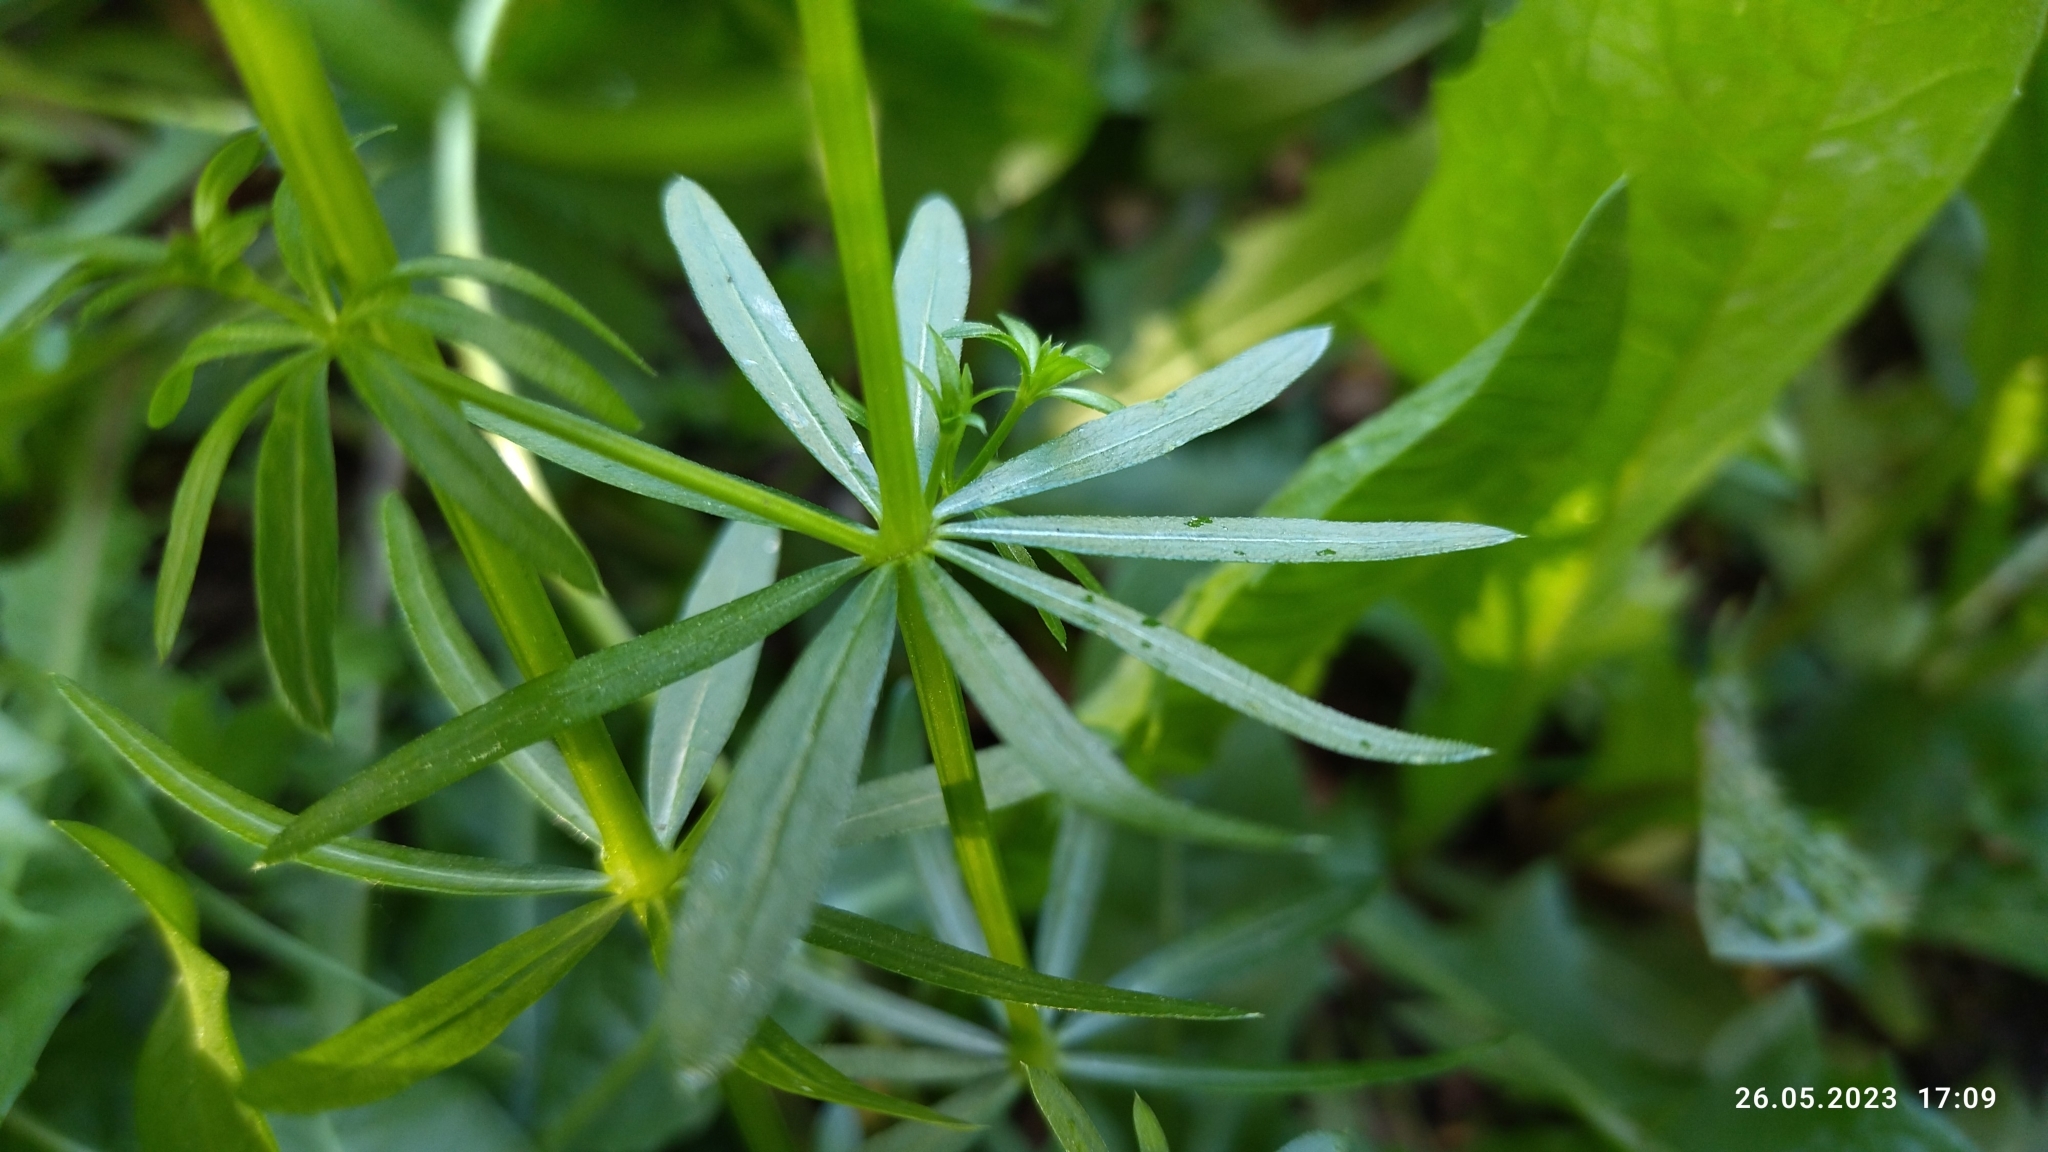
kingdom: Plantae
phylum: Tracheophyta
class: Magnoliopsida
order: Gentianales
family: Rubiaceae
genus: Galium
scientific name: Galium mollugo
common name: Hedge bedstraw
